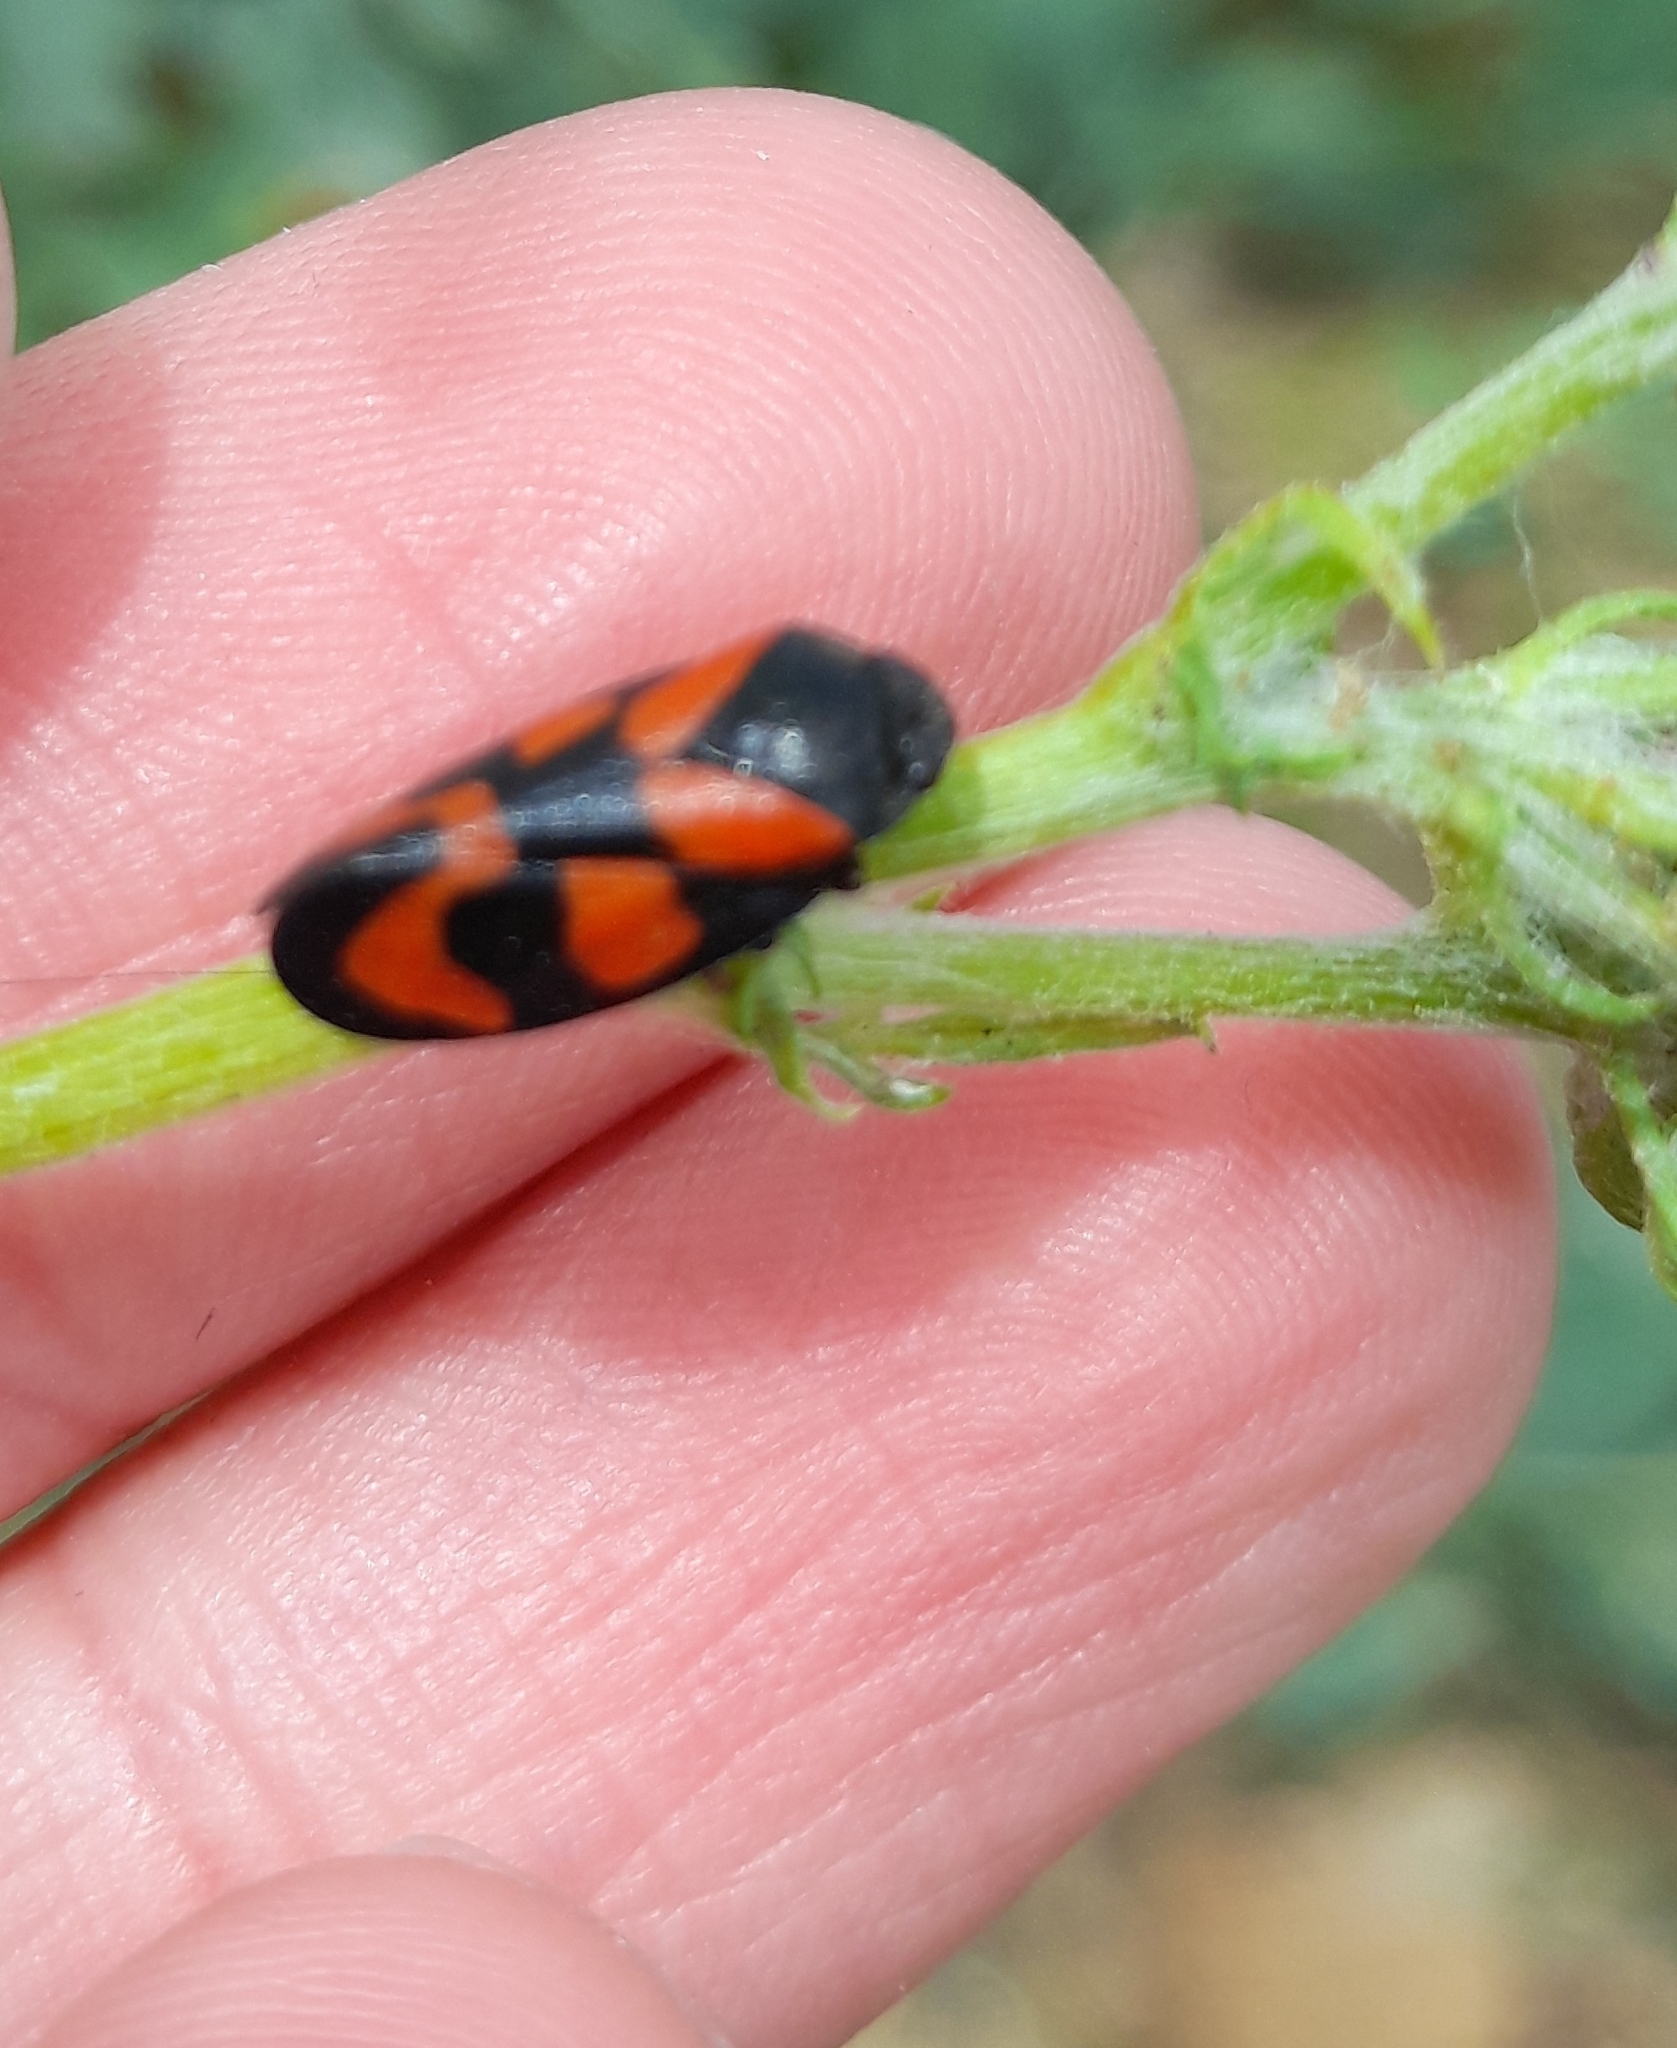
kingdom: Animalia
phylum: Arthropoda
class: Insecta
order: Hemiptera
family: Cercopidae
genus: Cercopis
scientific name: Cercopis vulnerata
